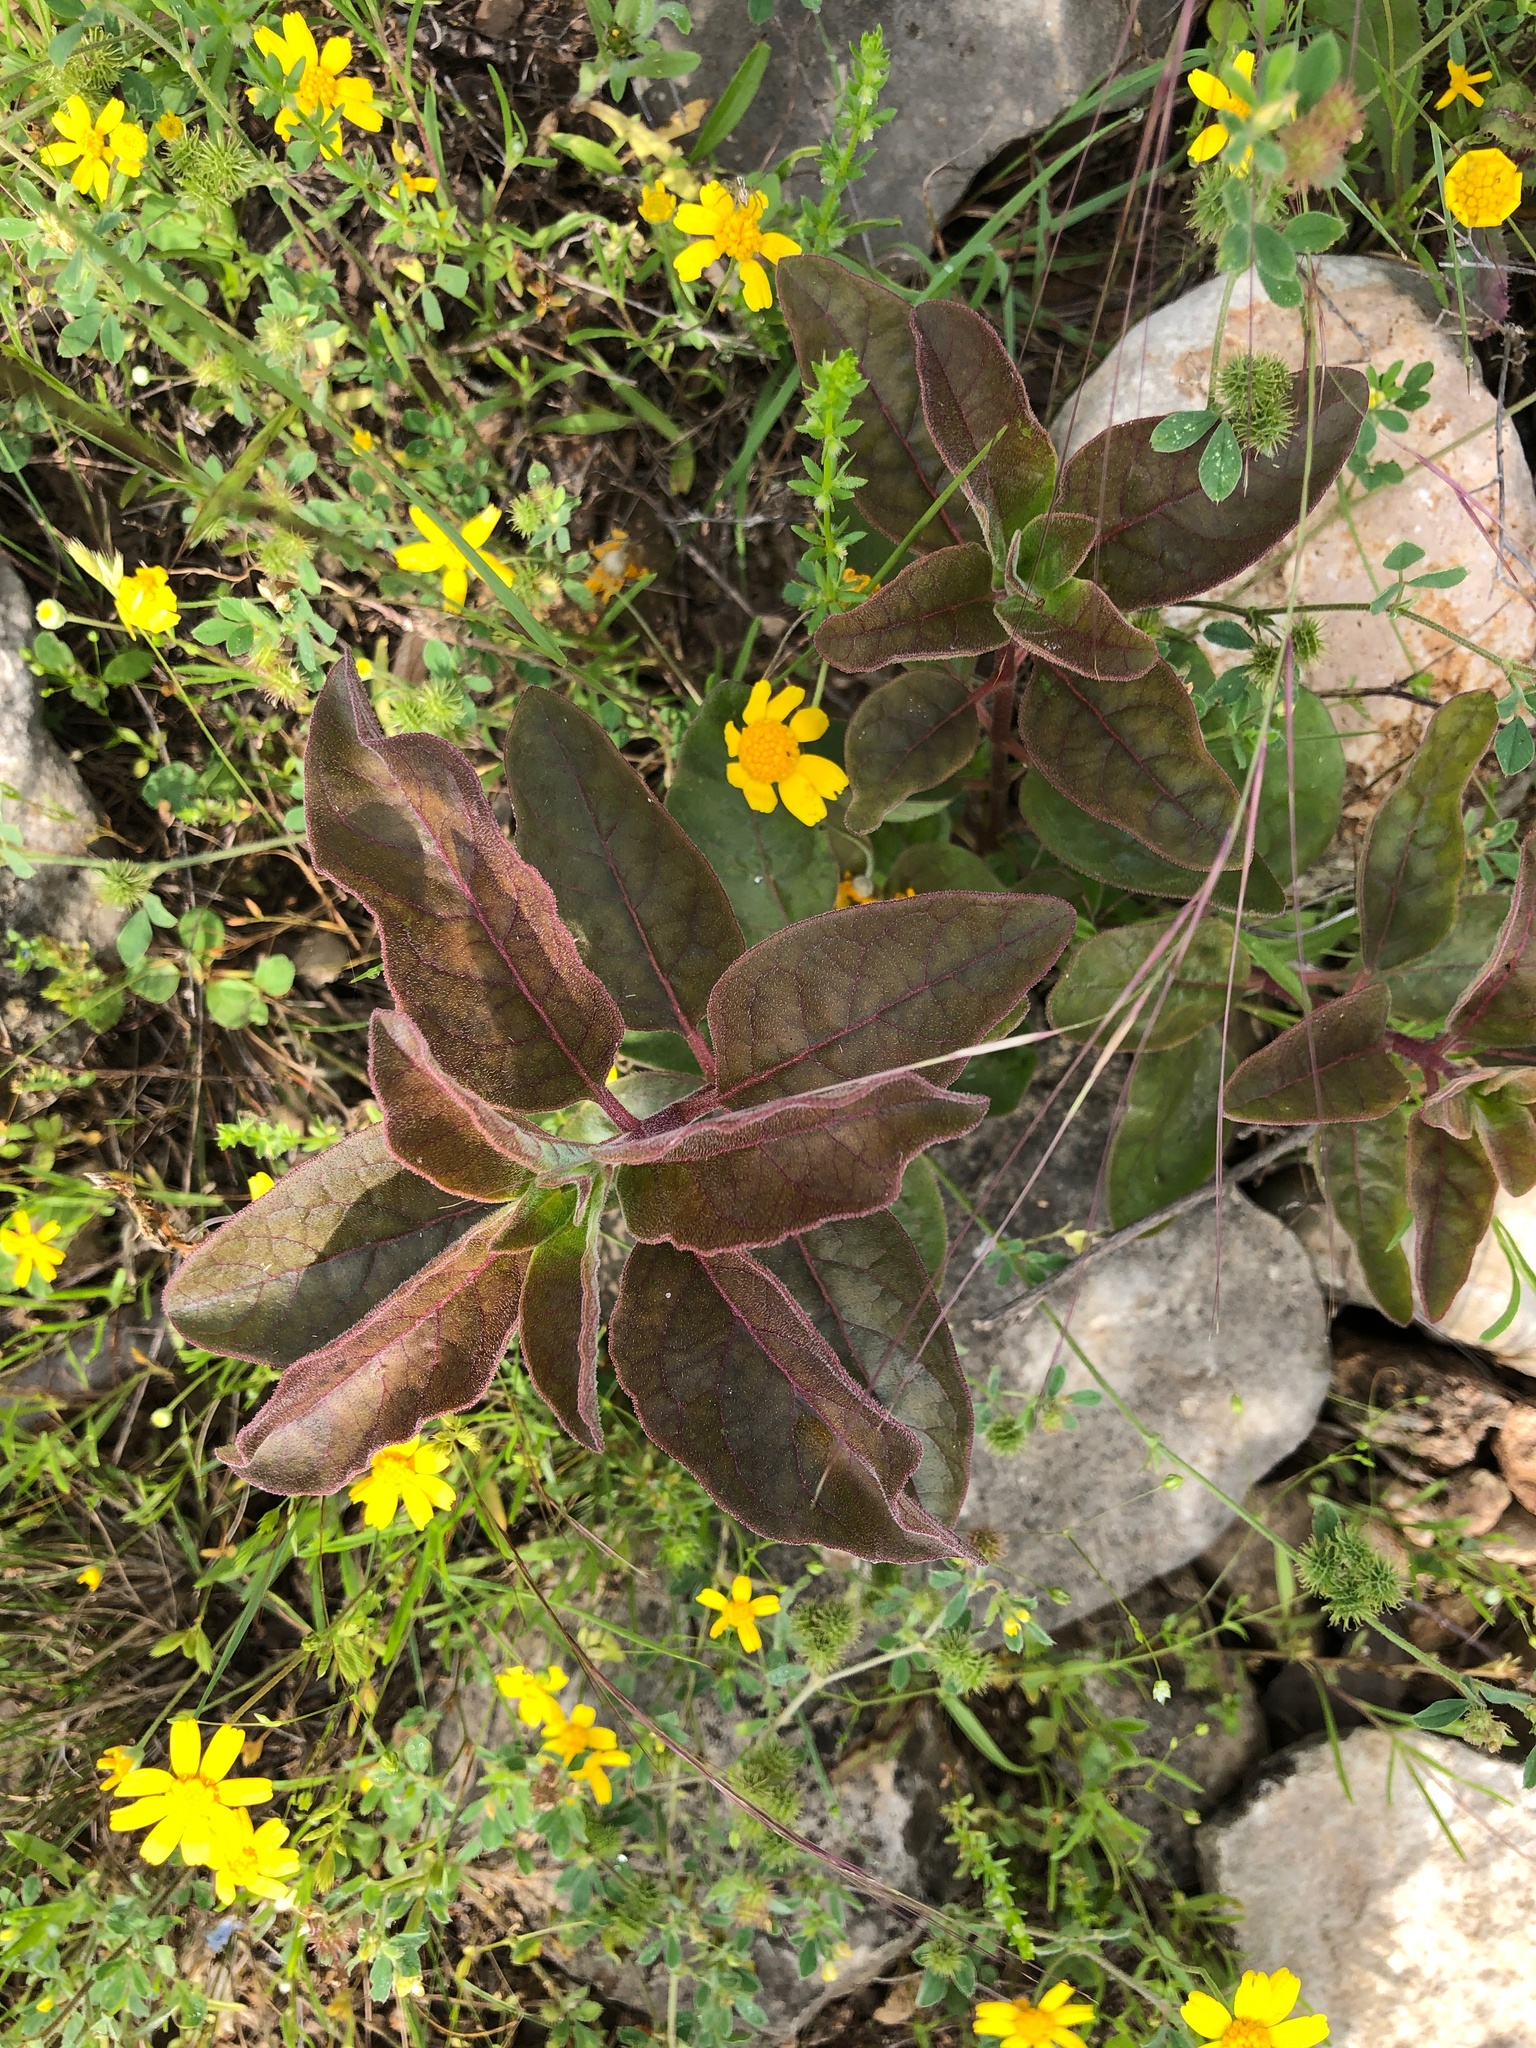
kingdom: Plantae
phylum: Tracheophyta
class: Magnoliopsida
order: Gentianales
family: Apocynaceae
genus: Asclepias
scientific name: Asclepias oenotheroides
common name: Zizotes milkweed
